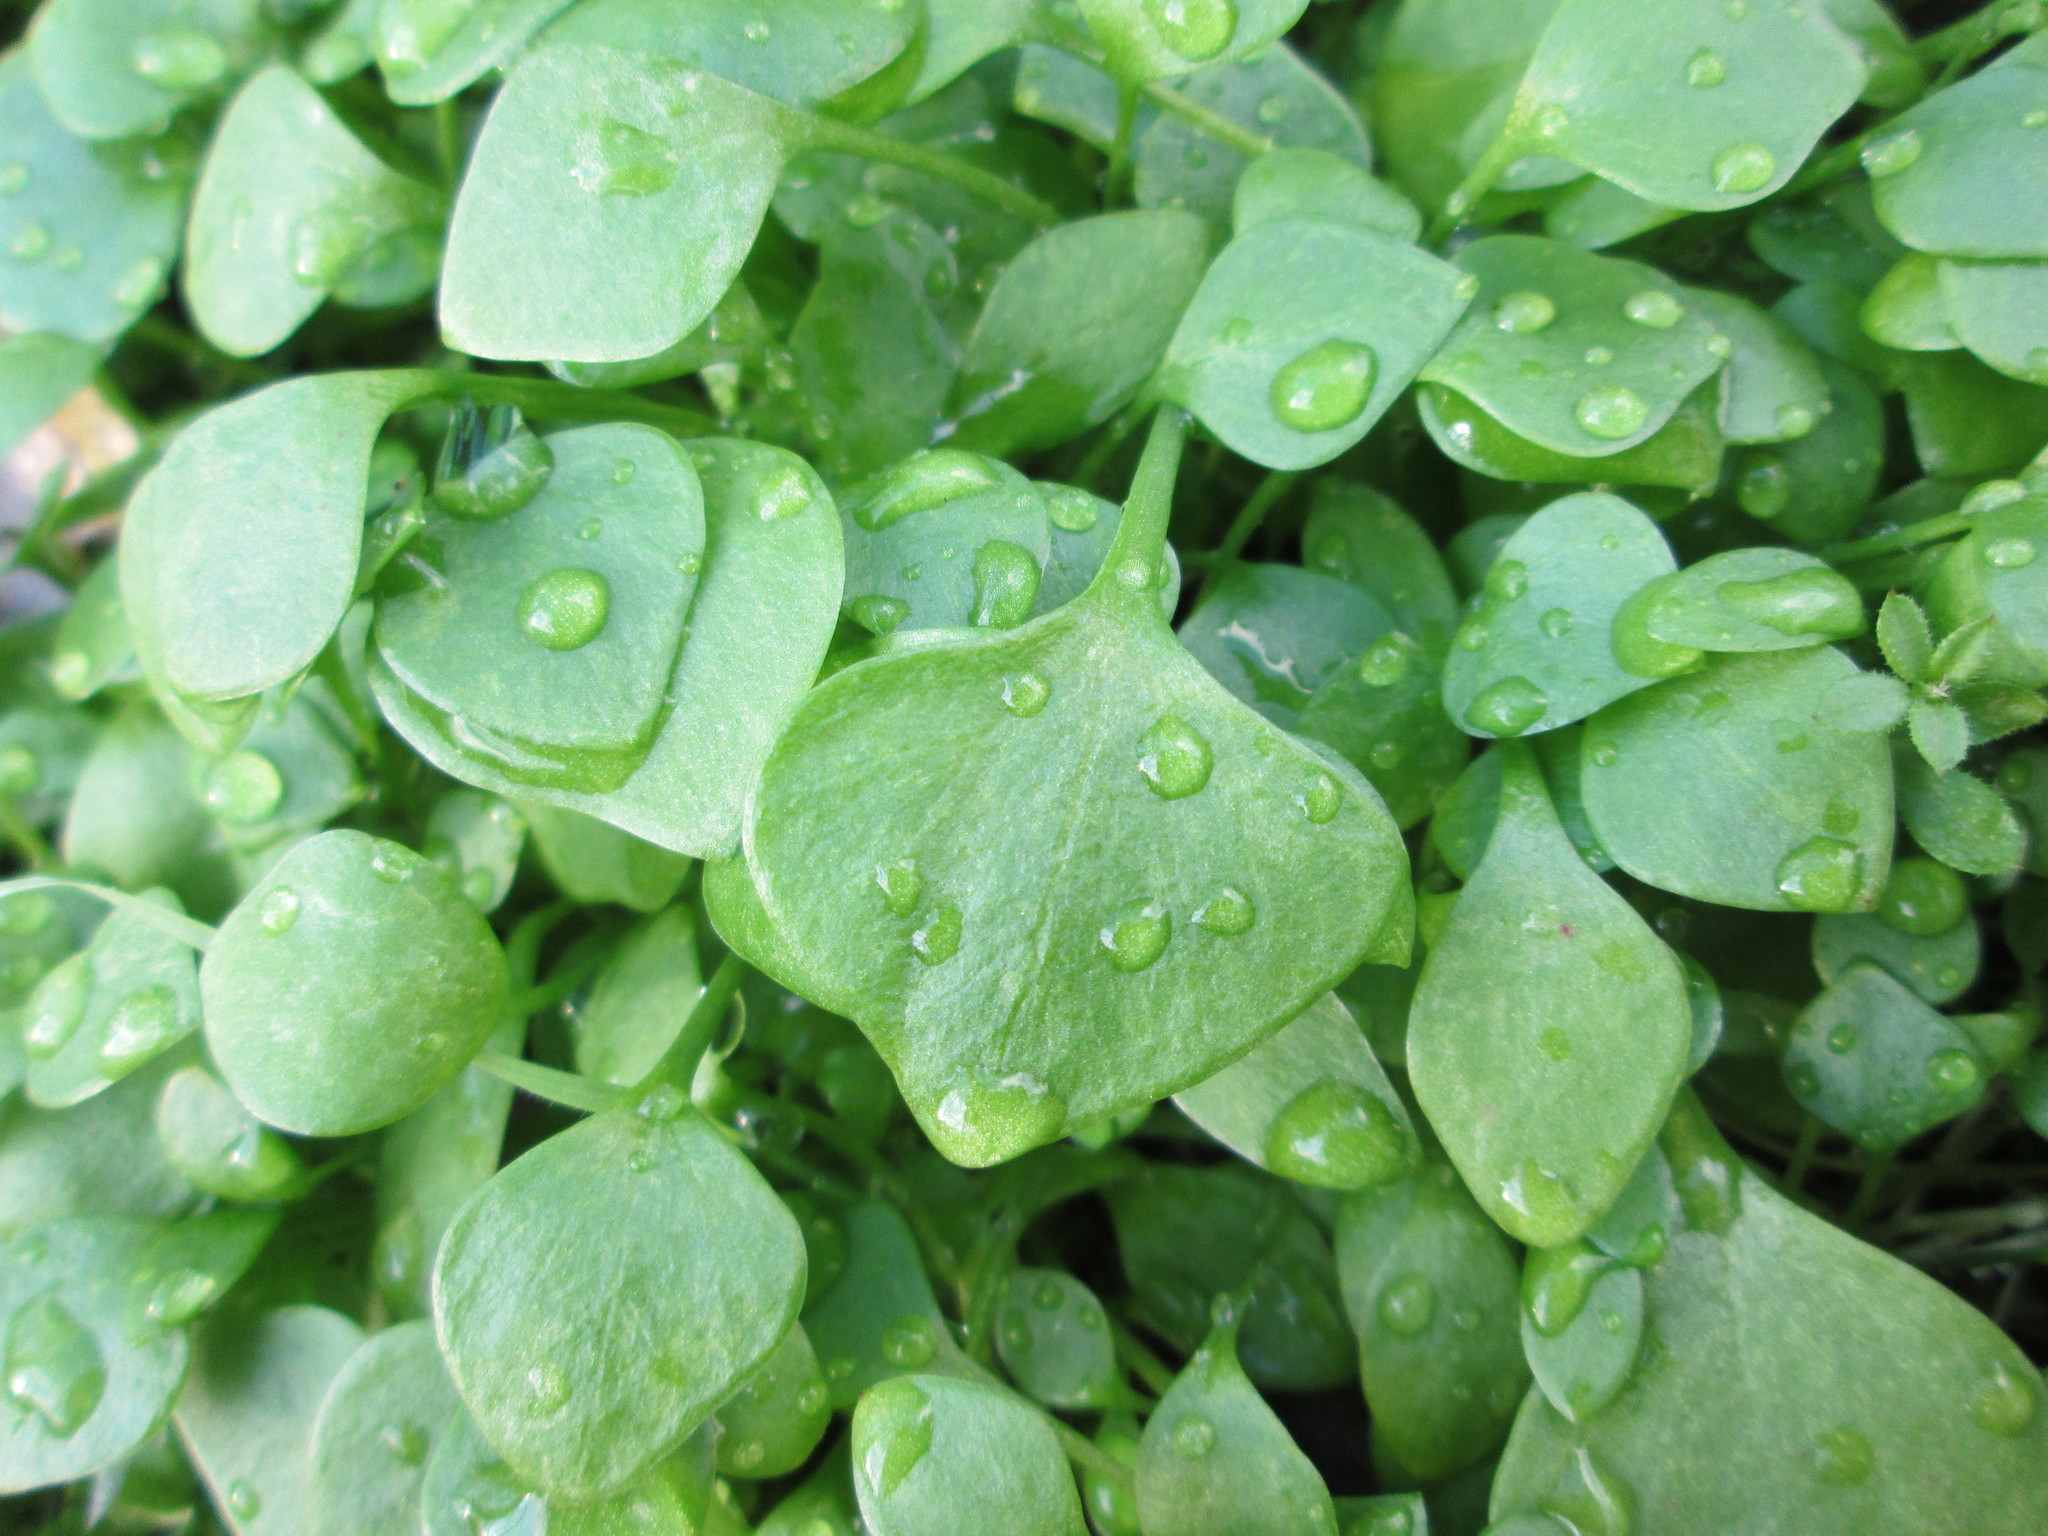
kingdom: Plantae
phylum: Tracheophyta
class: Magnoliopsida
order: Caryophyllales
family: Montiaceae
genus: Claytonia
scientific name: Claytonia perfoliata
